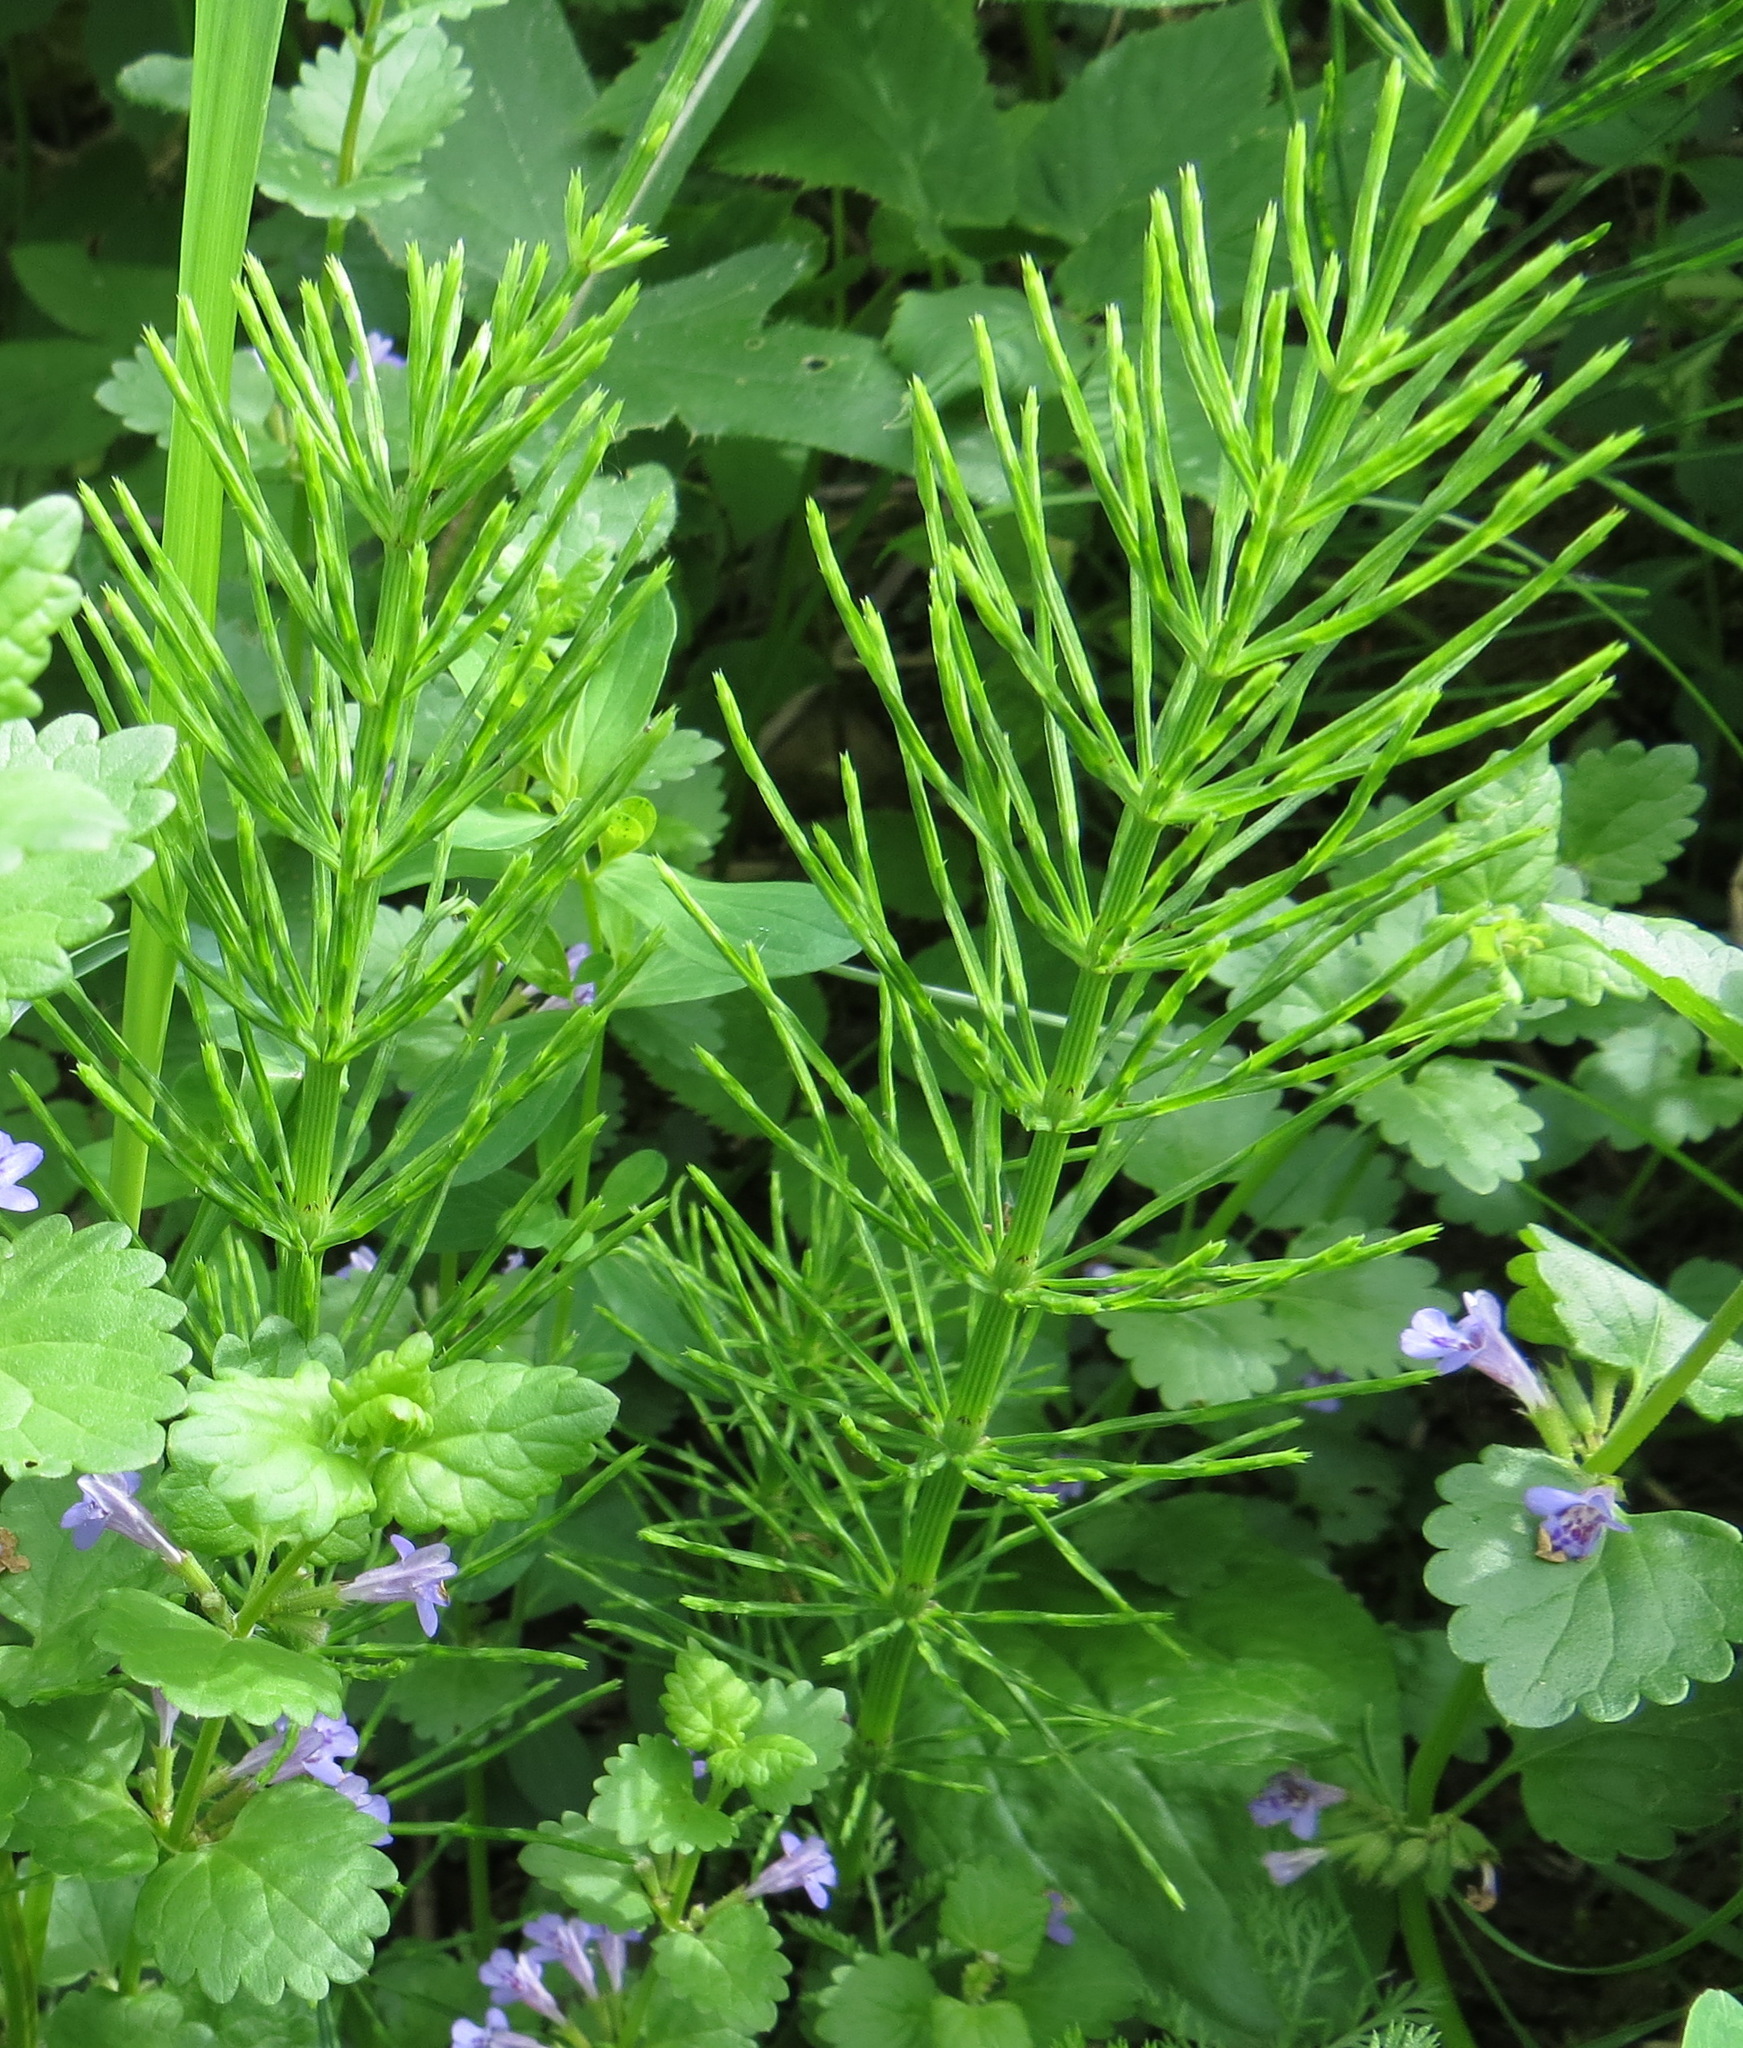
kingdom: Plantae
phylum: Tracheophyta
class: Polypodiopsida
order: Equisetales
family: Equisetaceae
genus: Equisetum
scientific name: Equisetum arvense
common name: Field horsetail
